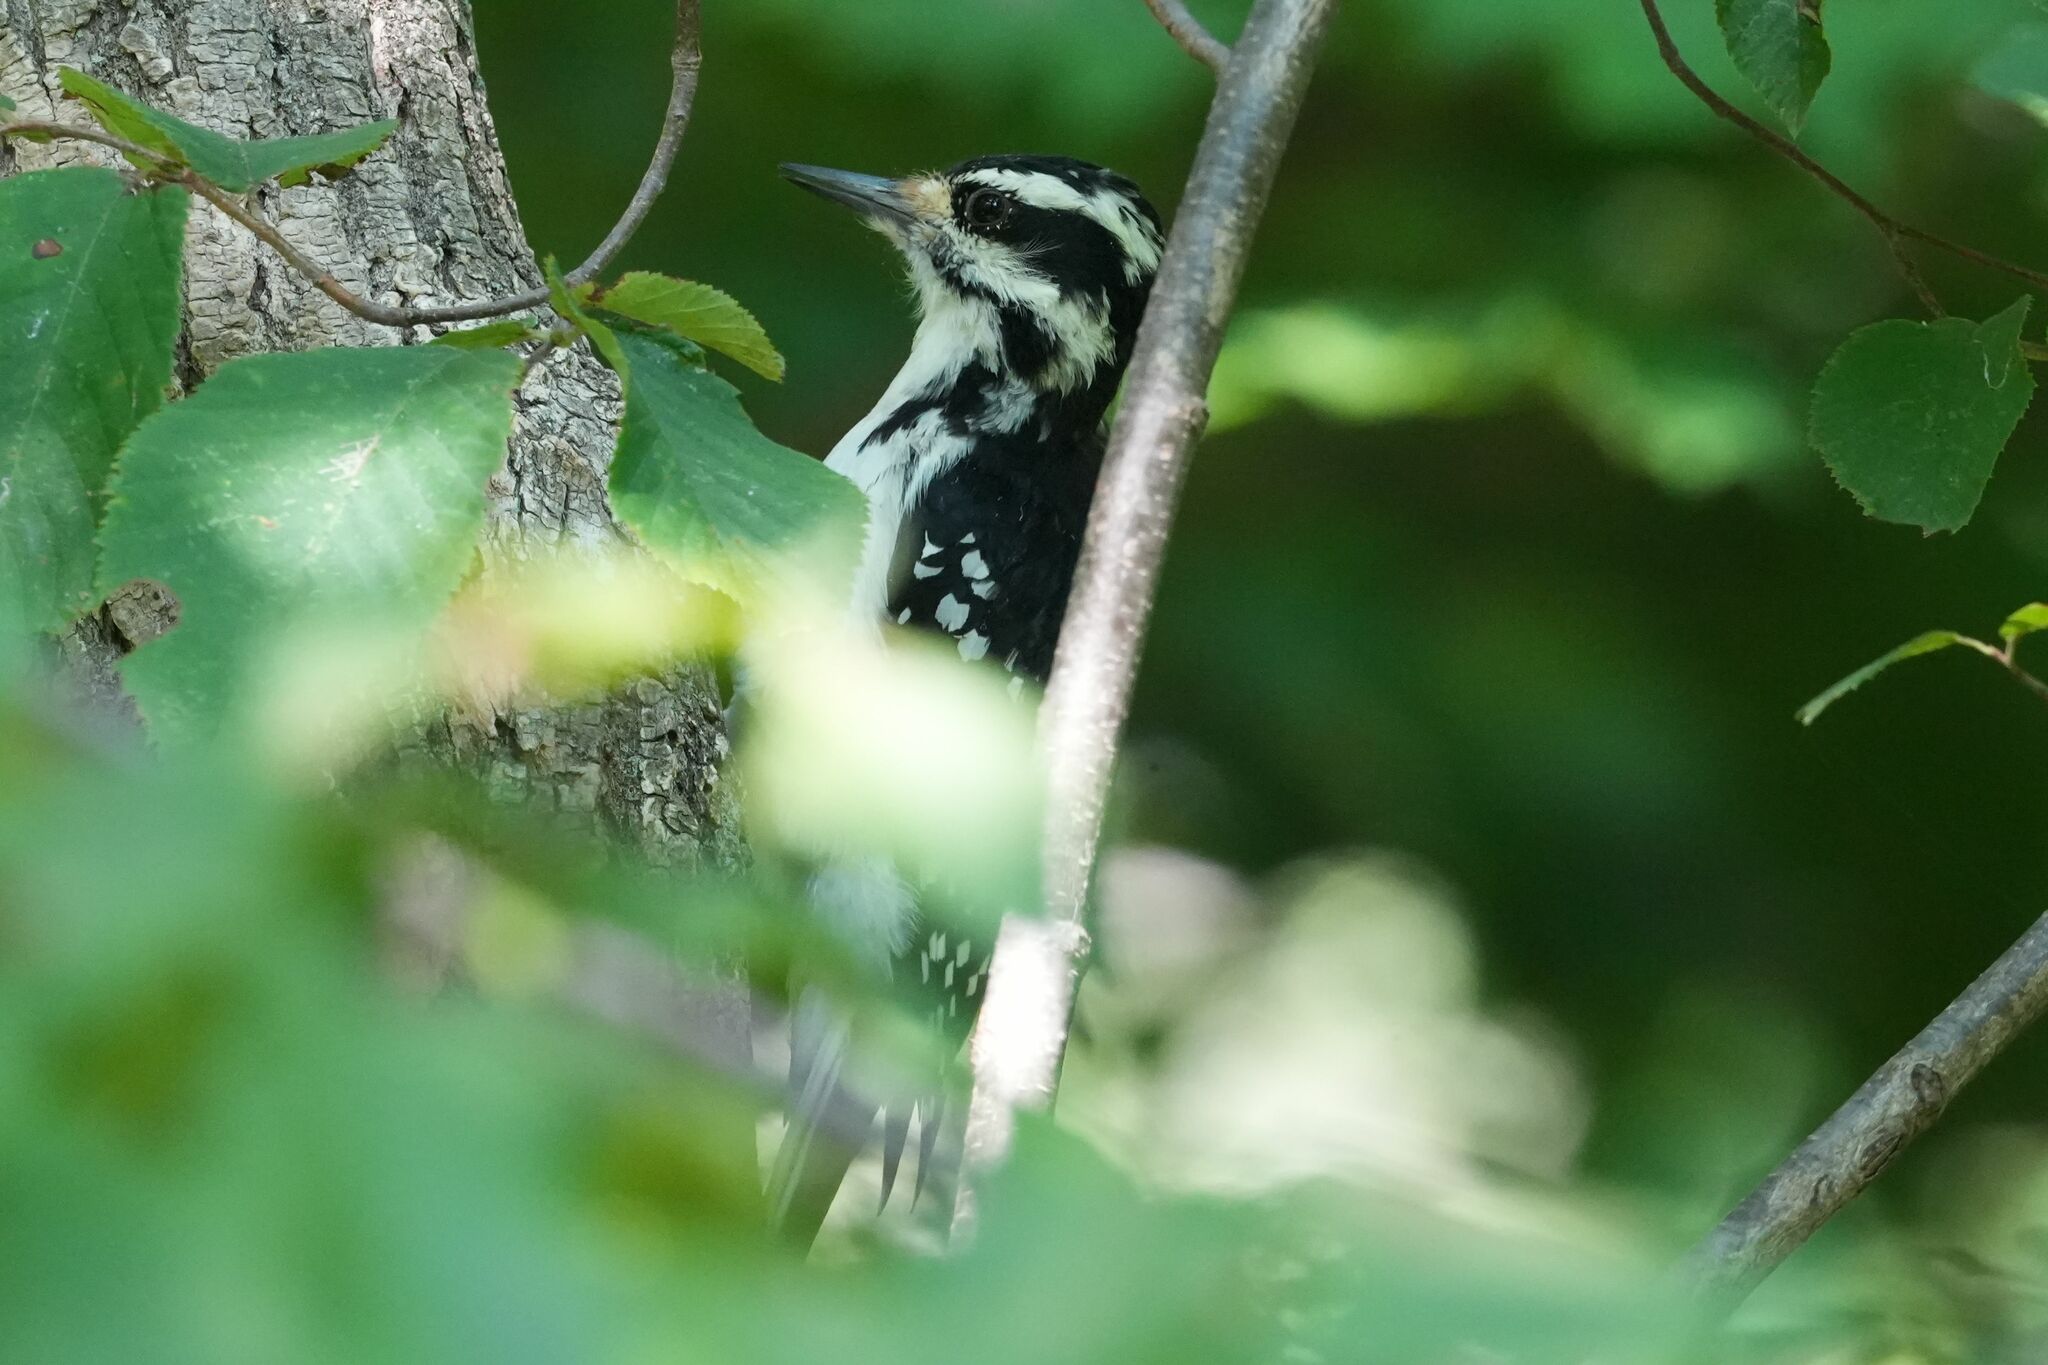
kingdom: Animalia
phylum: Chordata
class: Aves
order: Piciformes
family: Picidae
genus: Leuconotopicus
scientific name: Leuconotopicus villosus
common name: Hairy woodpecker
